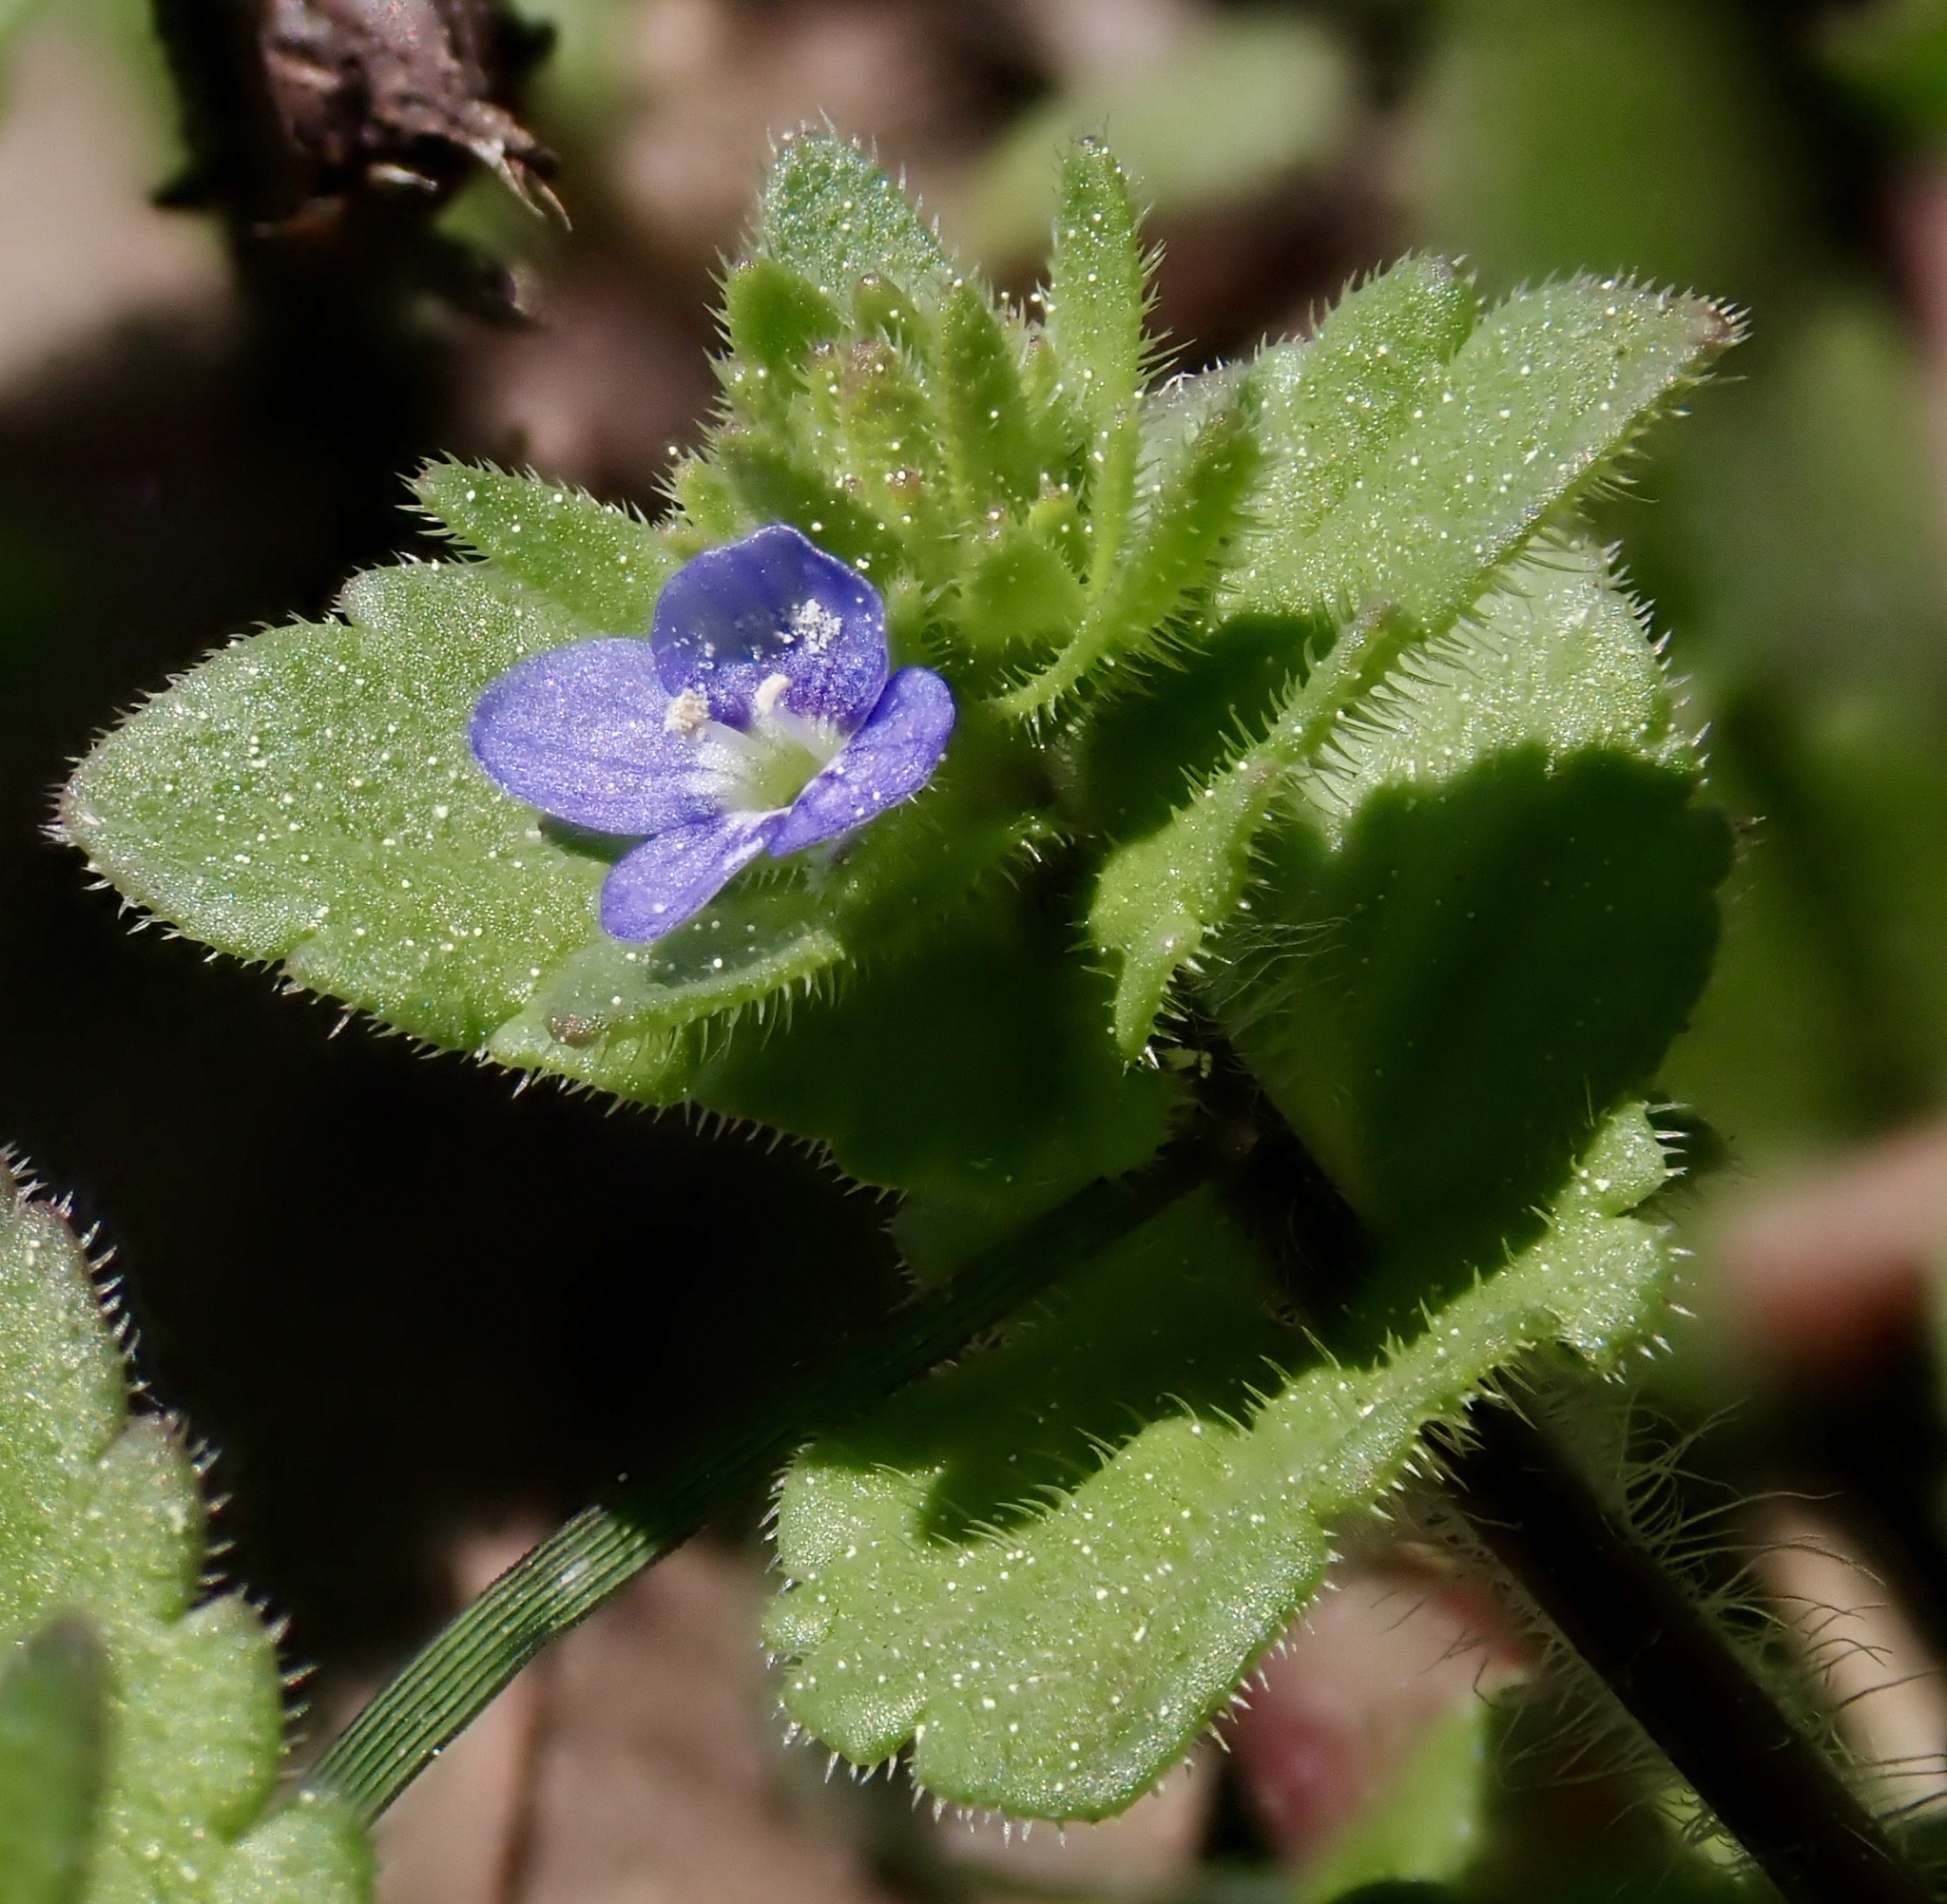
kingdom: Plantae
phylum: Tracheophyta
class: Magnoliopsida
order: Lamiales
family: Plantaginaceae
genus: Veronica
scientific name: Veronica arvensis
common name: Corn speedwell
